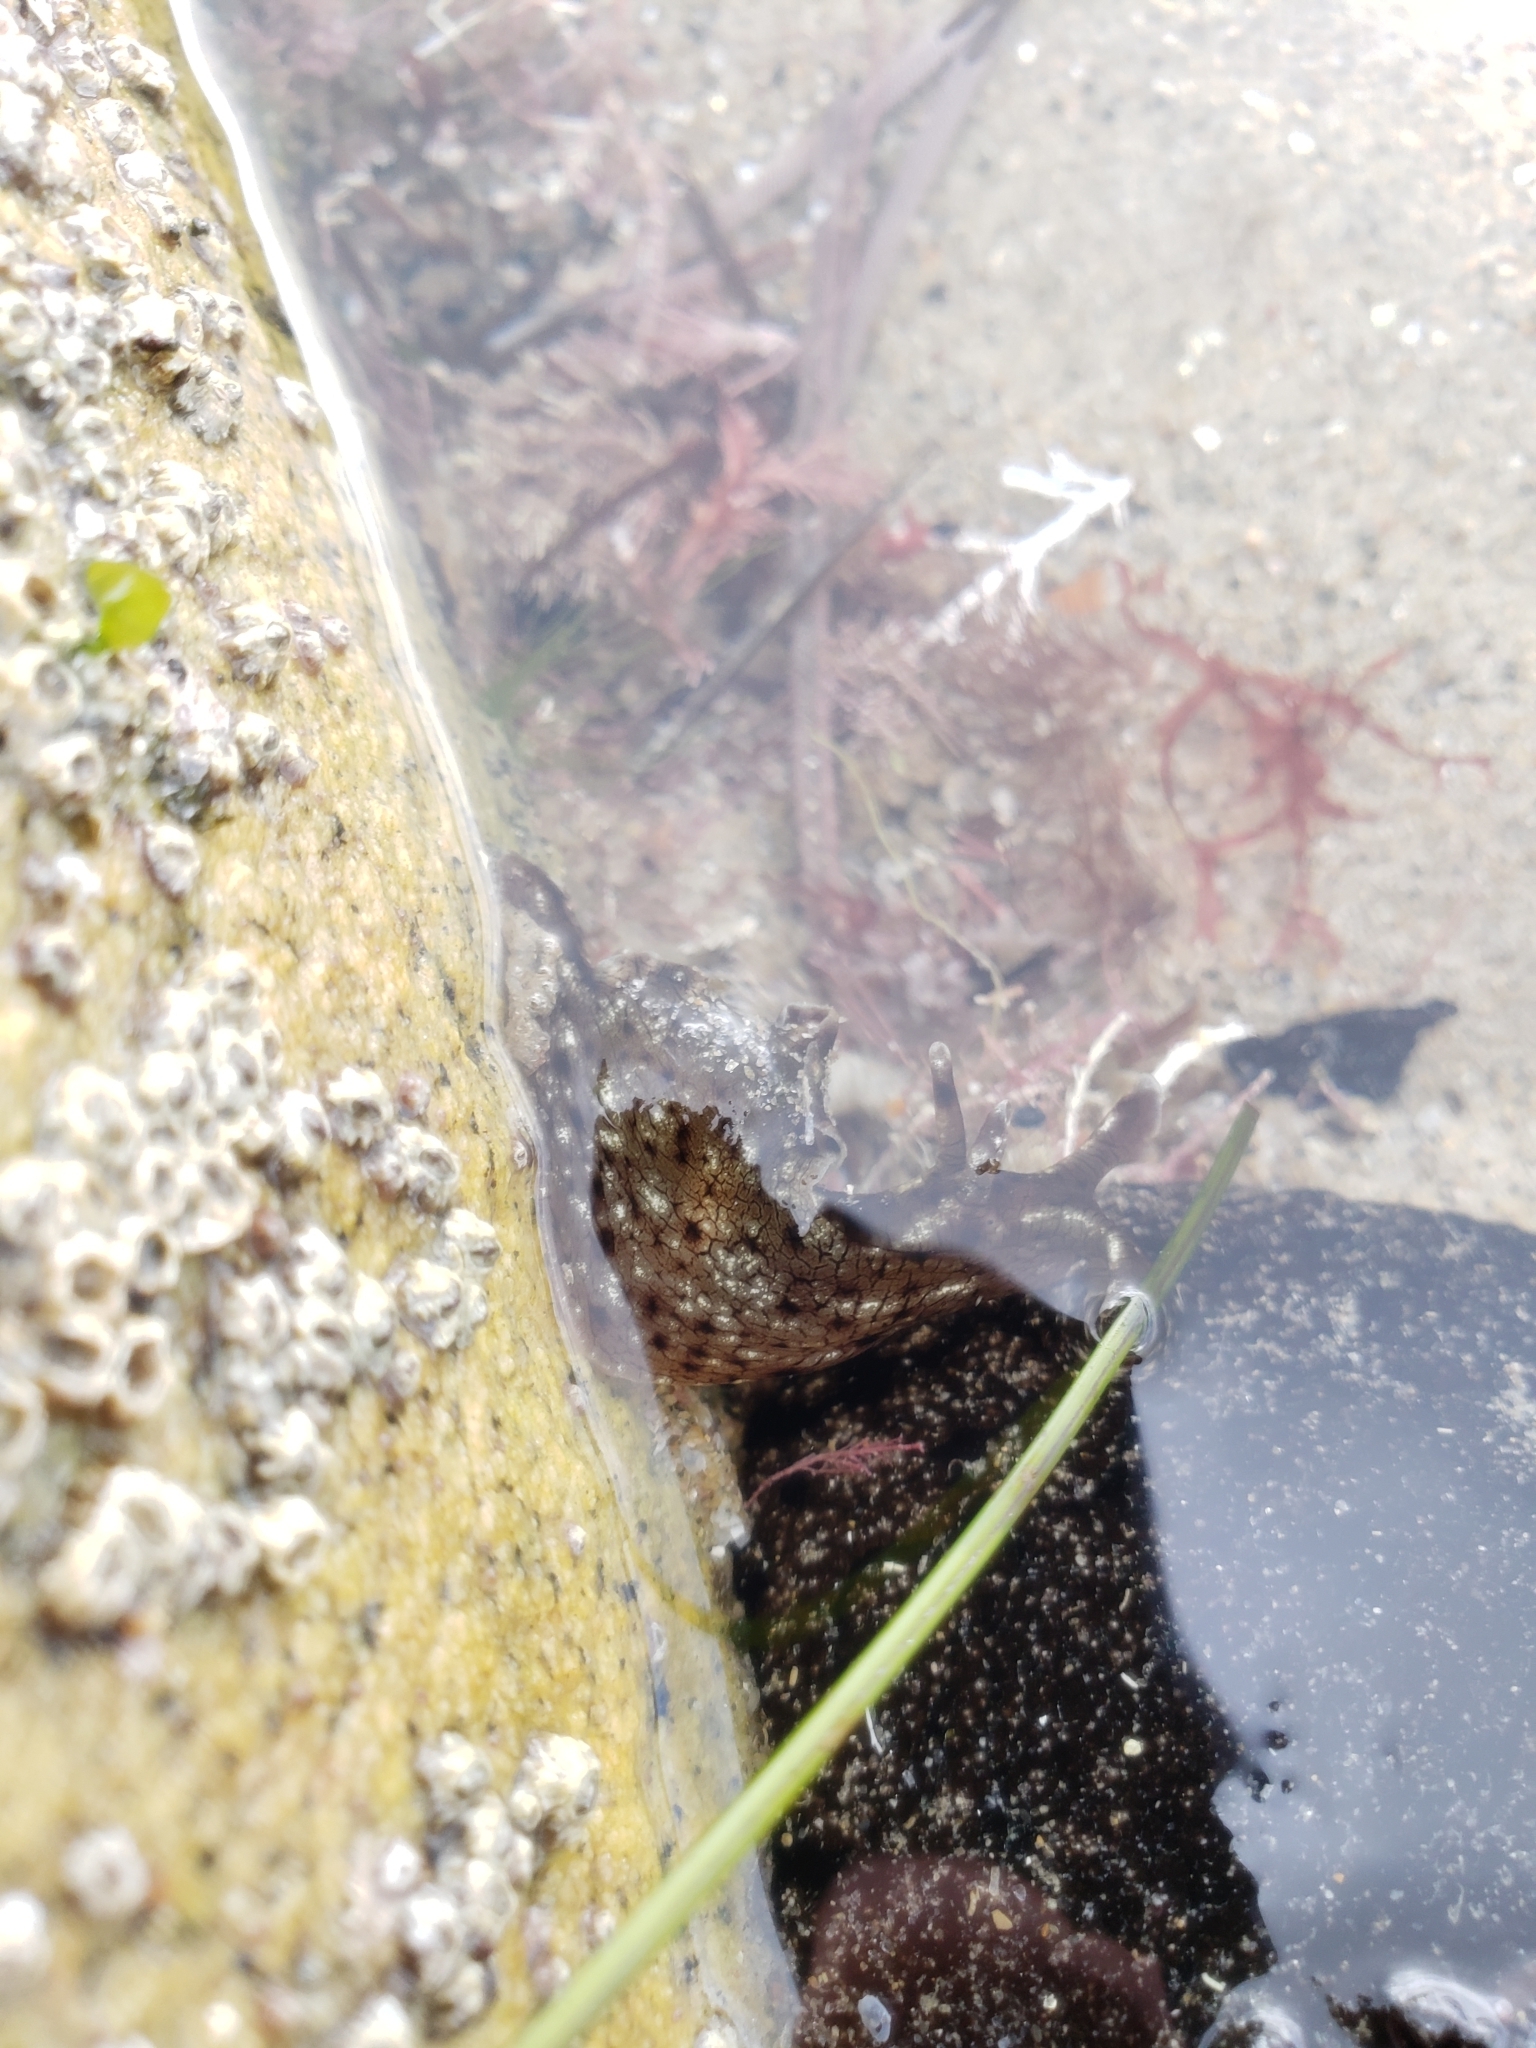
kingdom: Animalia
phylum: Mollusca
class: Gastropoda
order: Aplysiida
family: Aplysiidae
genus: Aplysia
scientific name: Aplysia californica
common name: California seahare
